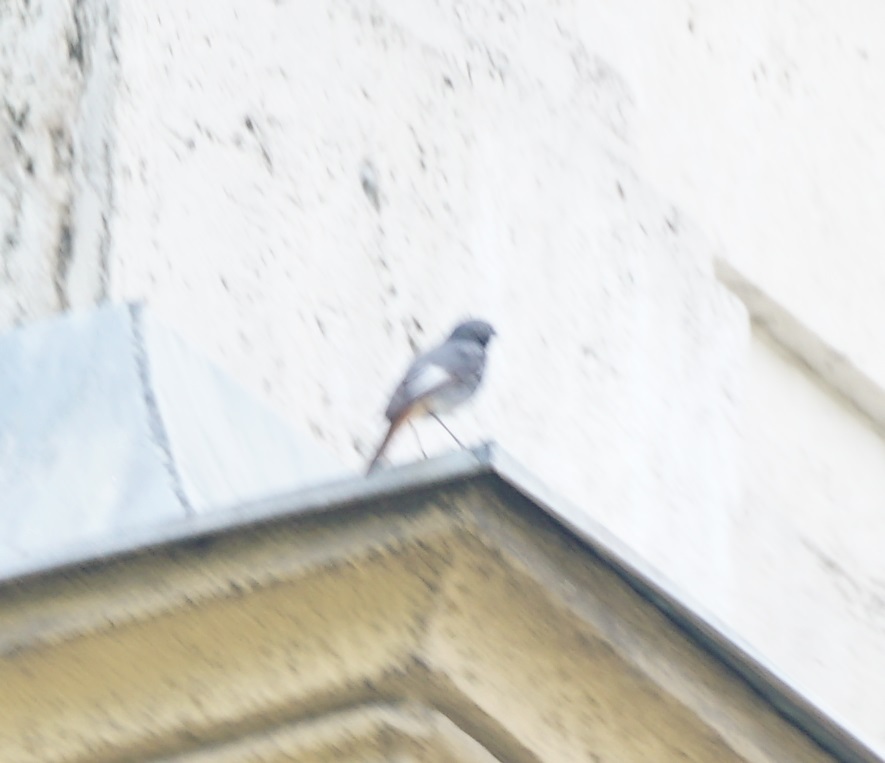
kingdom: Animalia
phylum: Chordata
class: Aves
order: Passeriformes
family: Muscicapidae
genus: Phoenicurus
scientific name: Phoenicurus ochruros
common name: Black redstart
